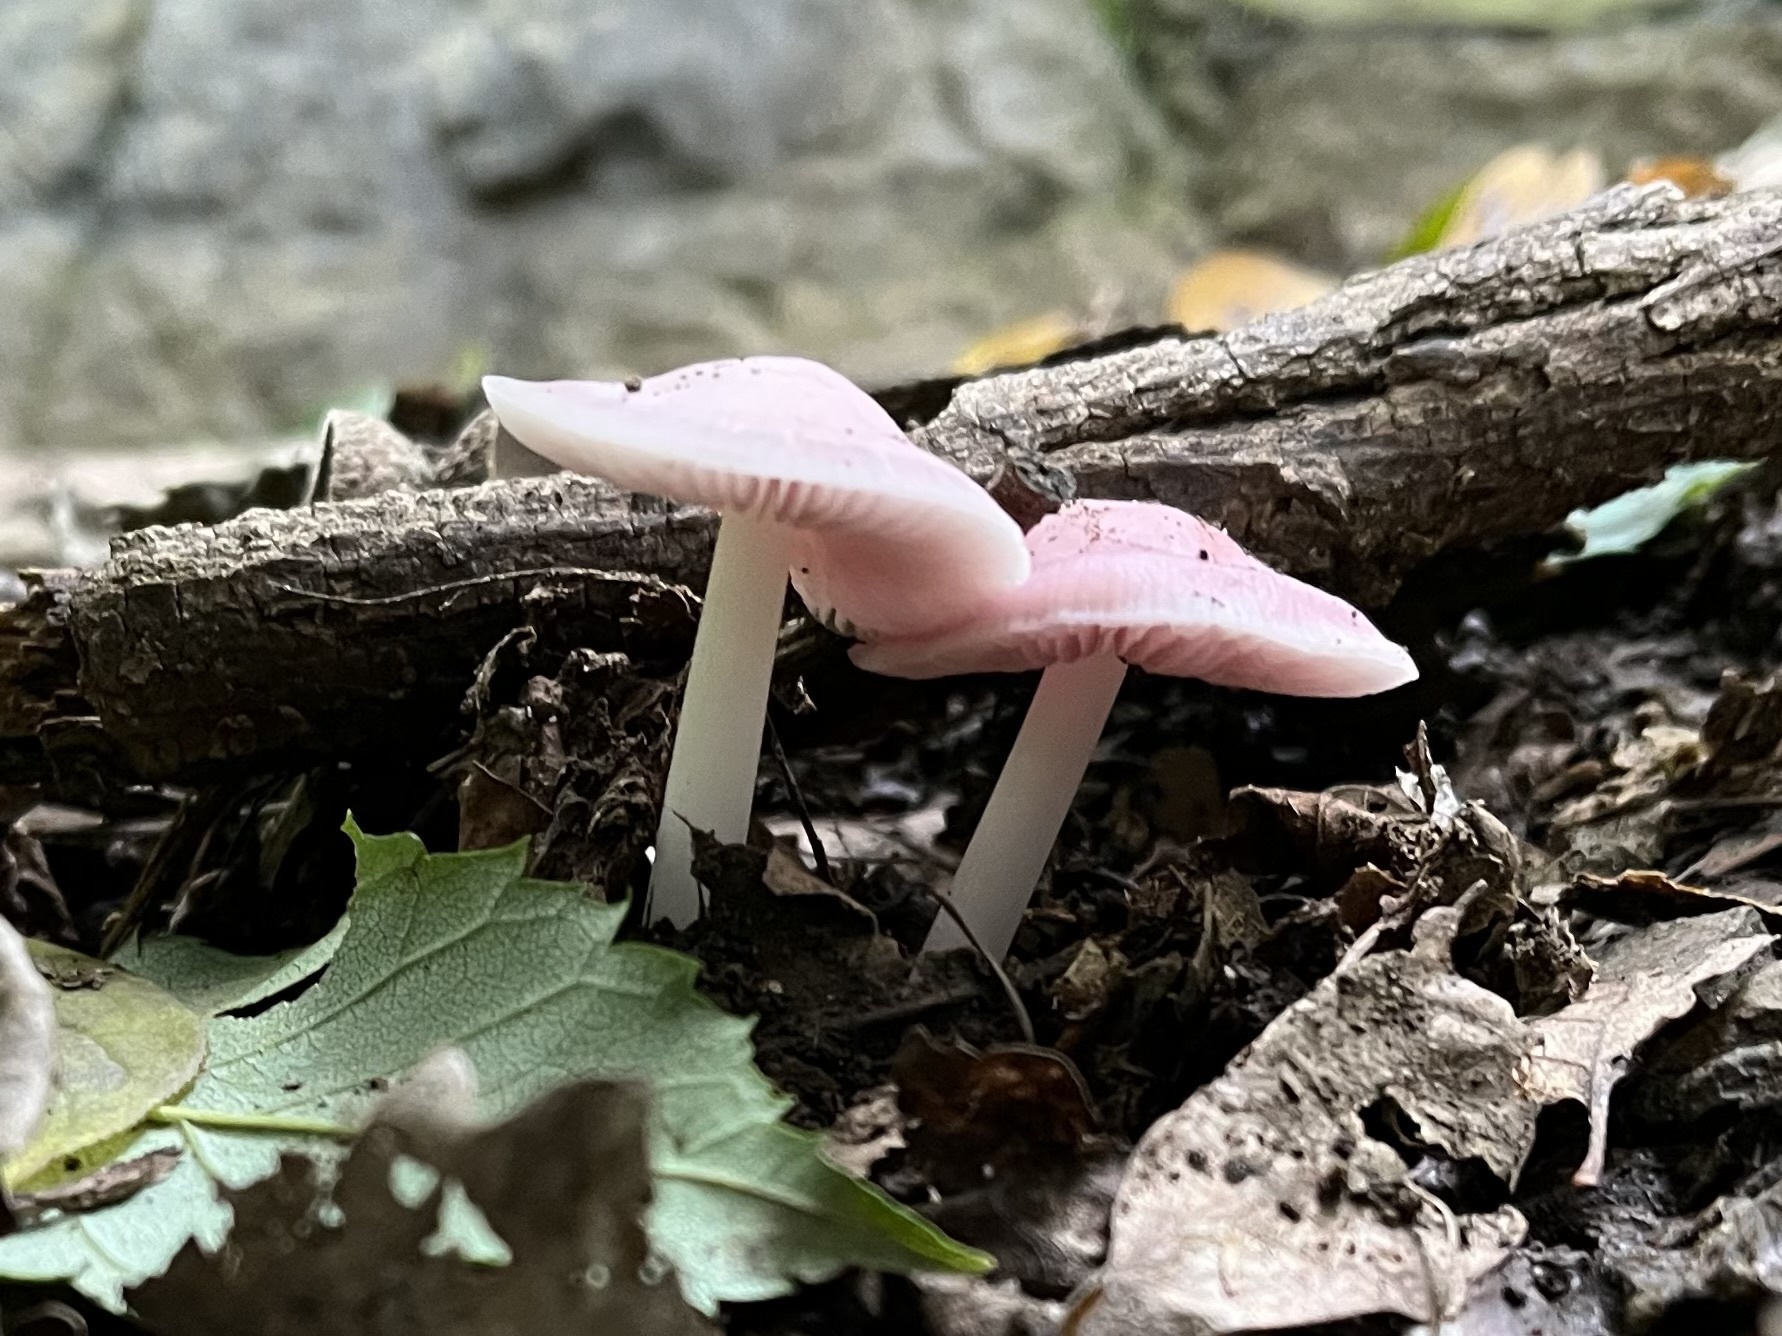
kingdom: Fungi
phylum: Basidiomycota
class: Agaricomycetes
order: Agaricales
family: Mycenaceae
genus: Mycena
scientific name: Mycena rosea
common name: Rosy bonnet
